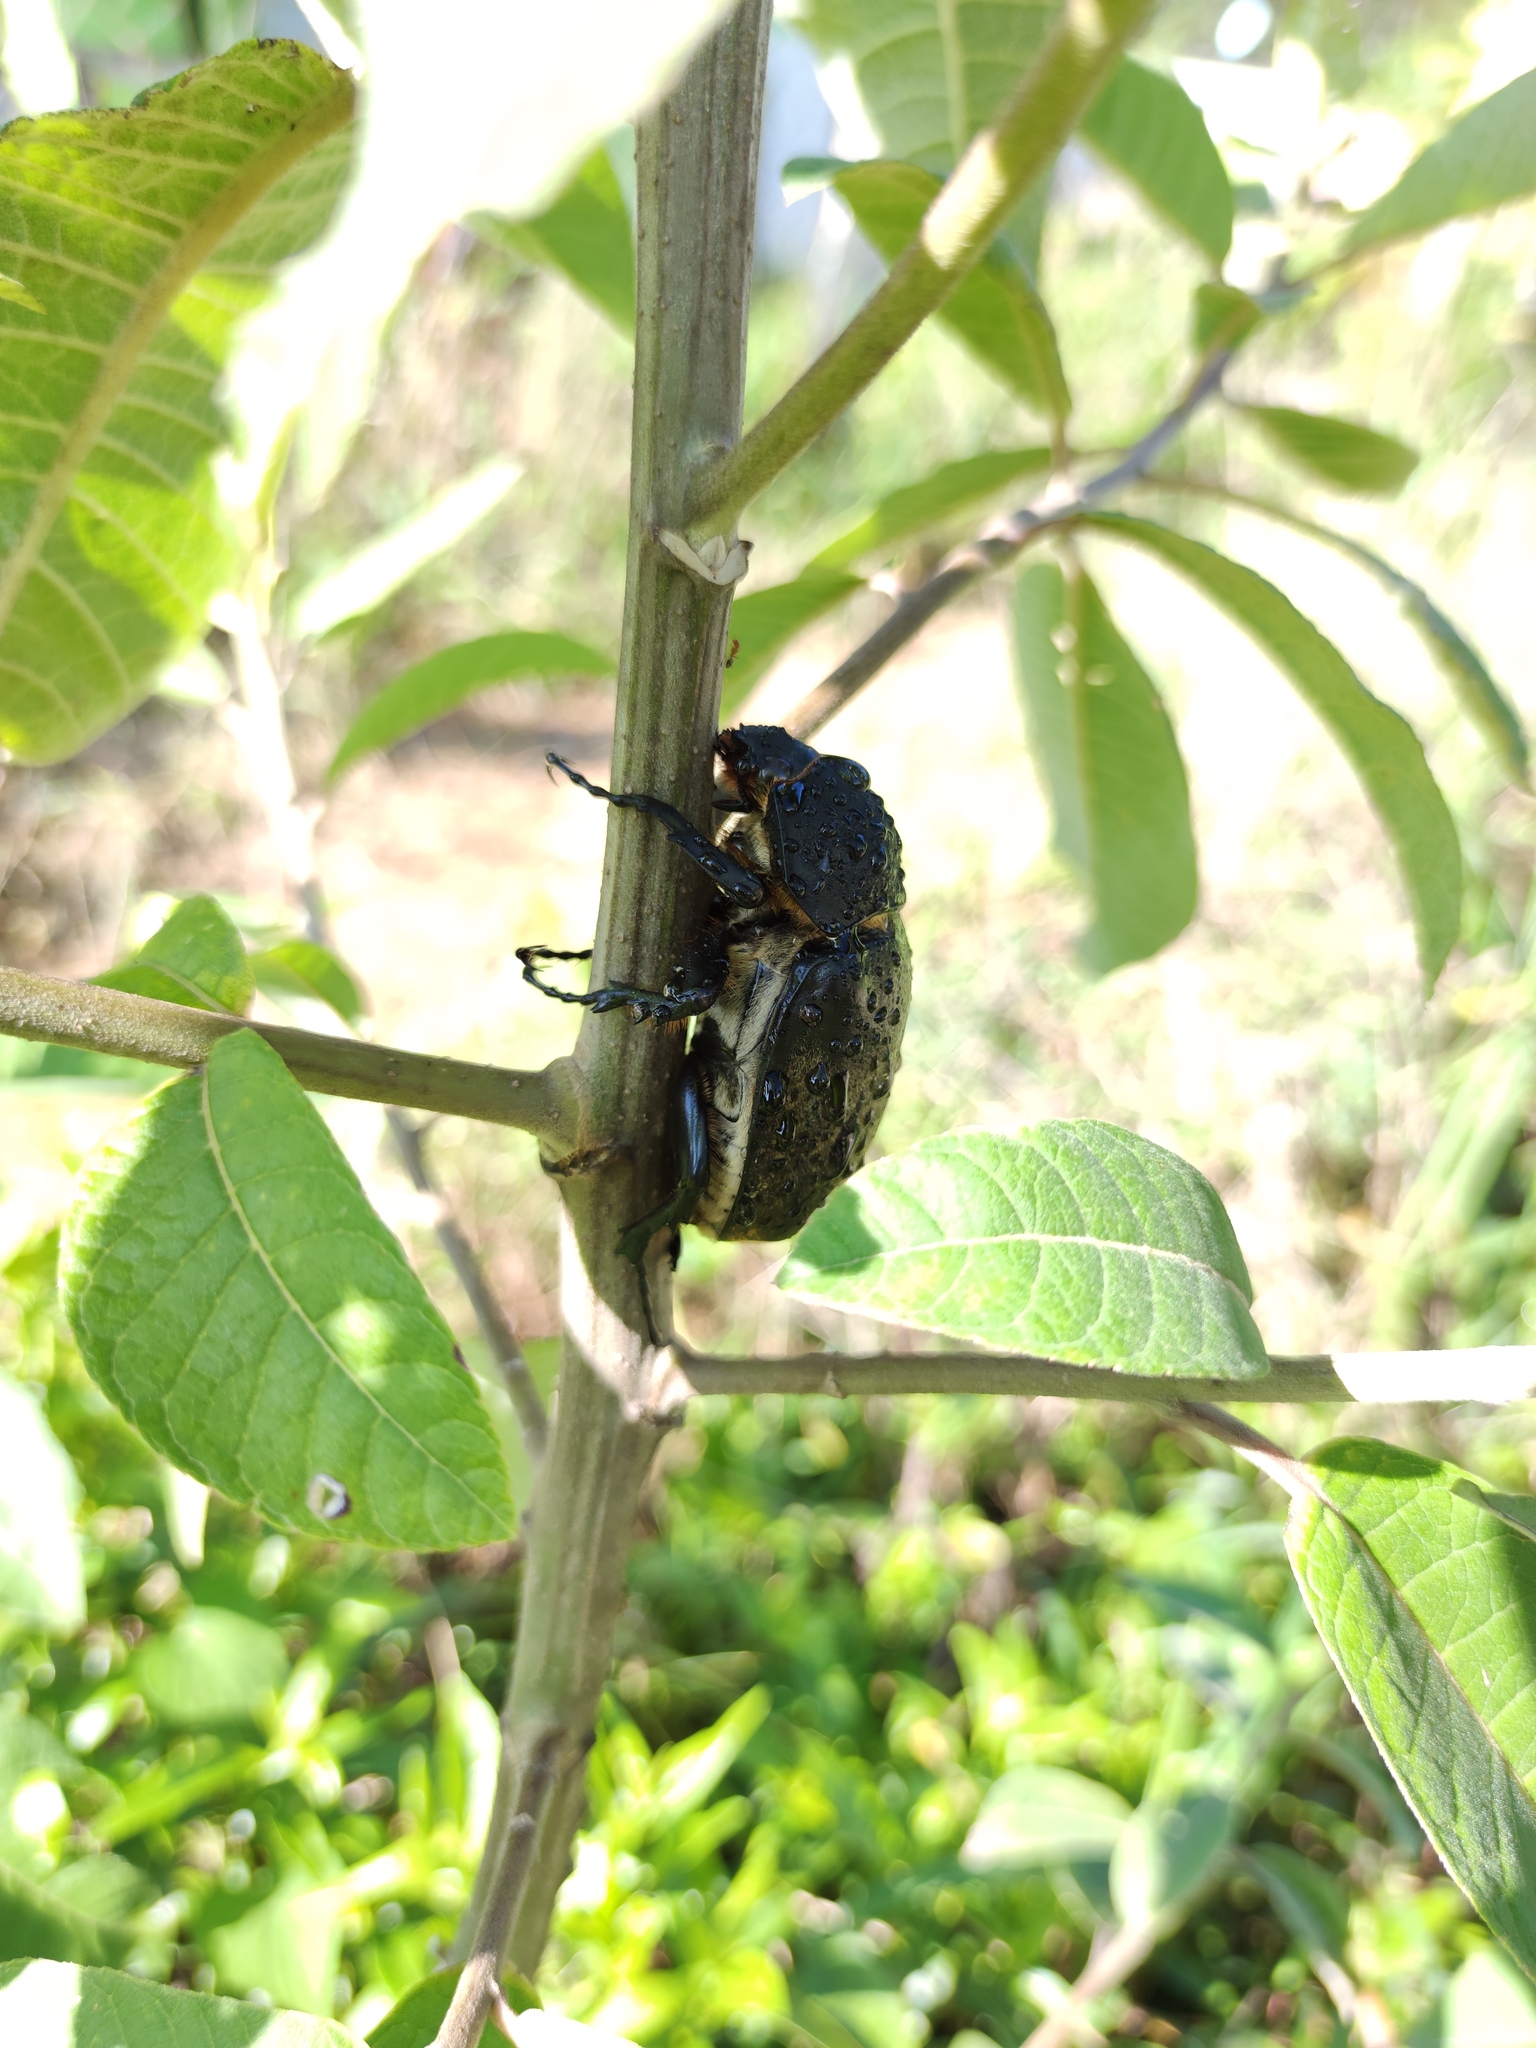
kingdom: Animalia
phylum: Arthropoda
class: Insecta
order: Coleoptera
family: Scarabaeidae
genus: Megasoma
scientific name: Megasoma elephas
